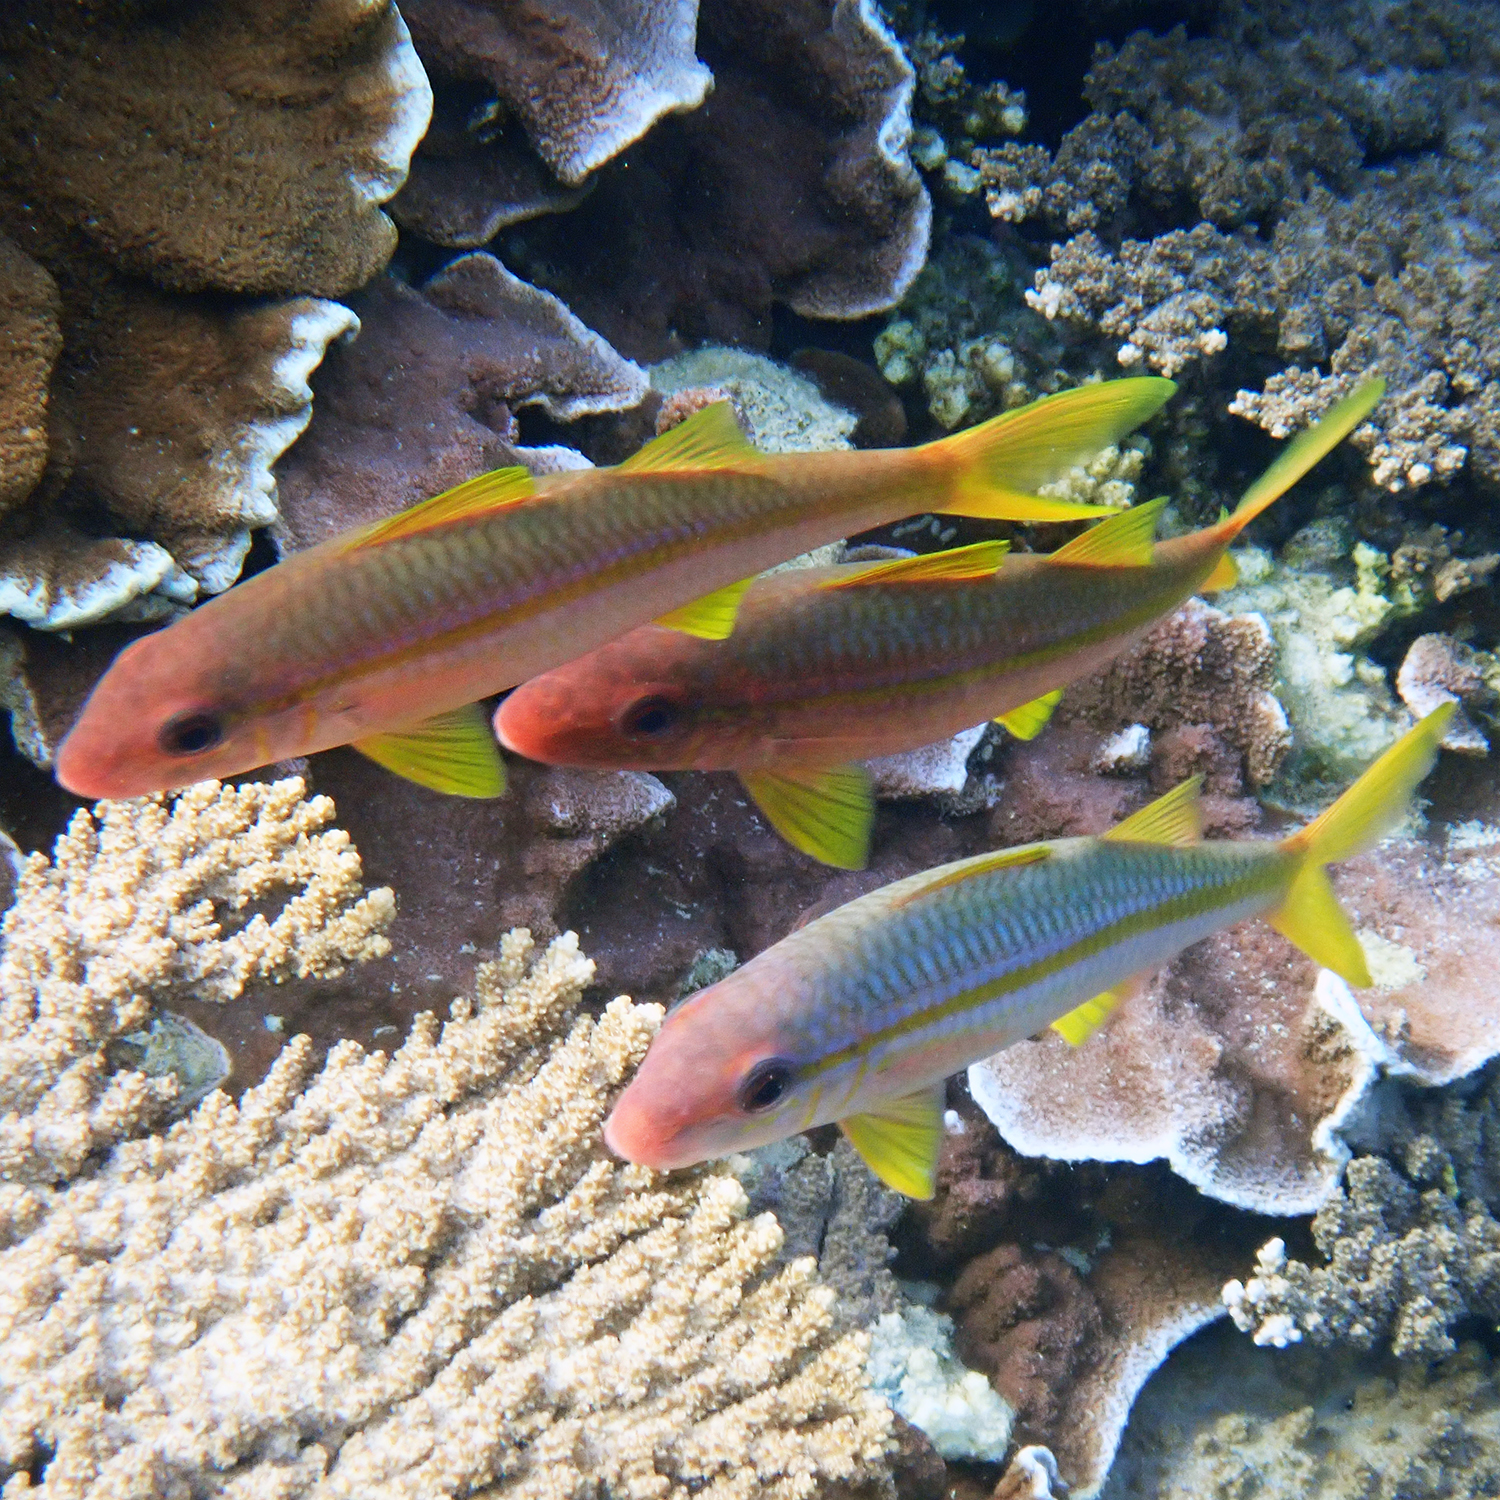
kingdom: Animalia
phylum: Chordata
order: Perciformes
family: Mullidae
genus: Mulloidichthys
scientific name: Mulloidichthys vanicolensis
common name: Yellowfin goatfish
